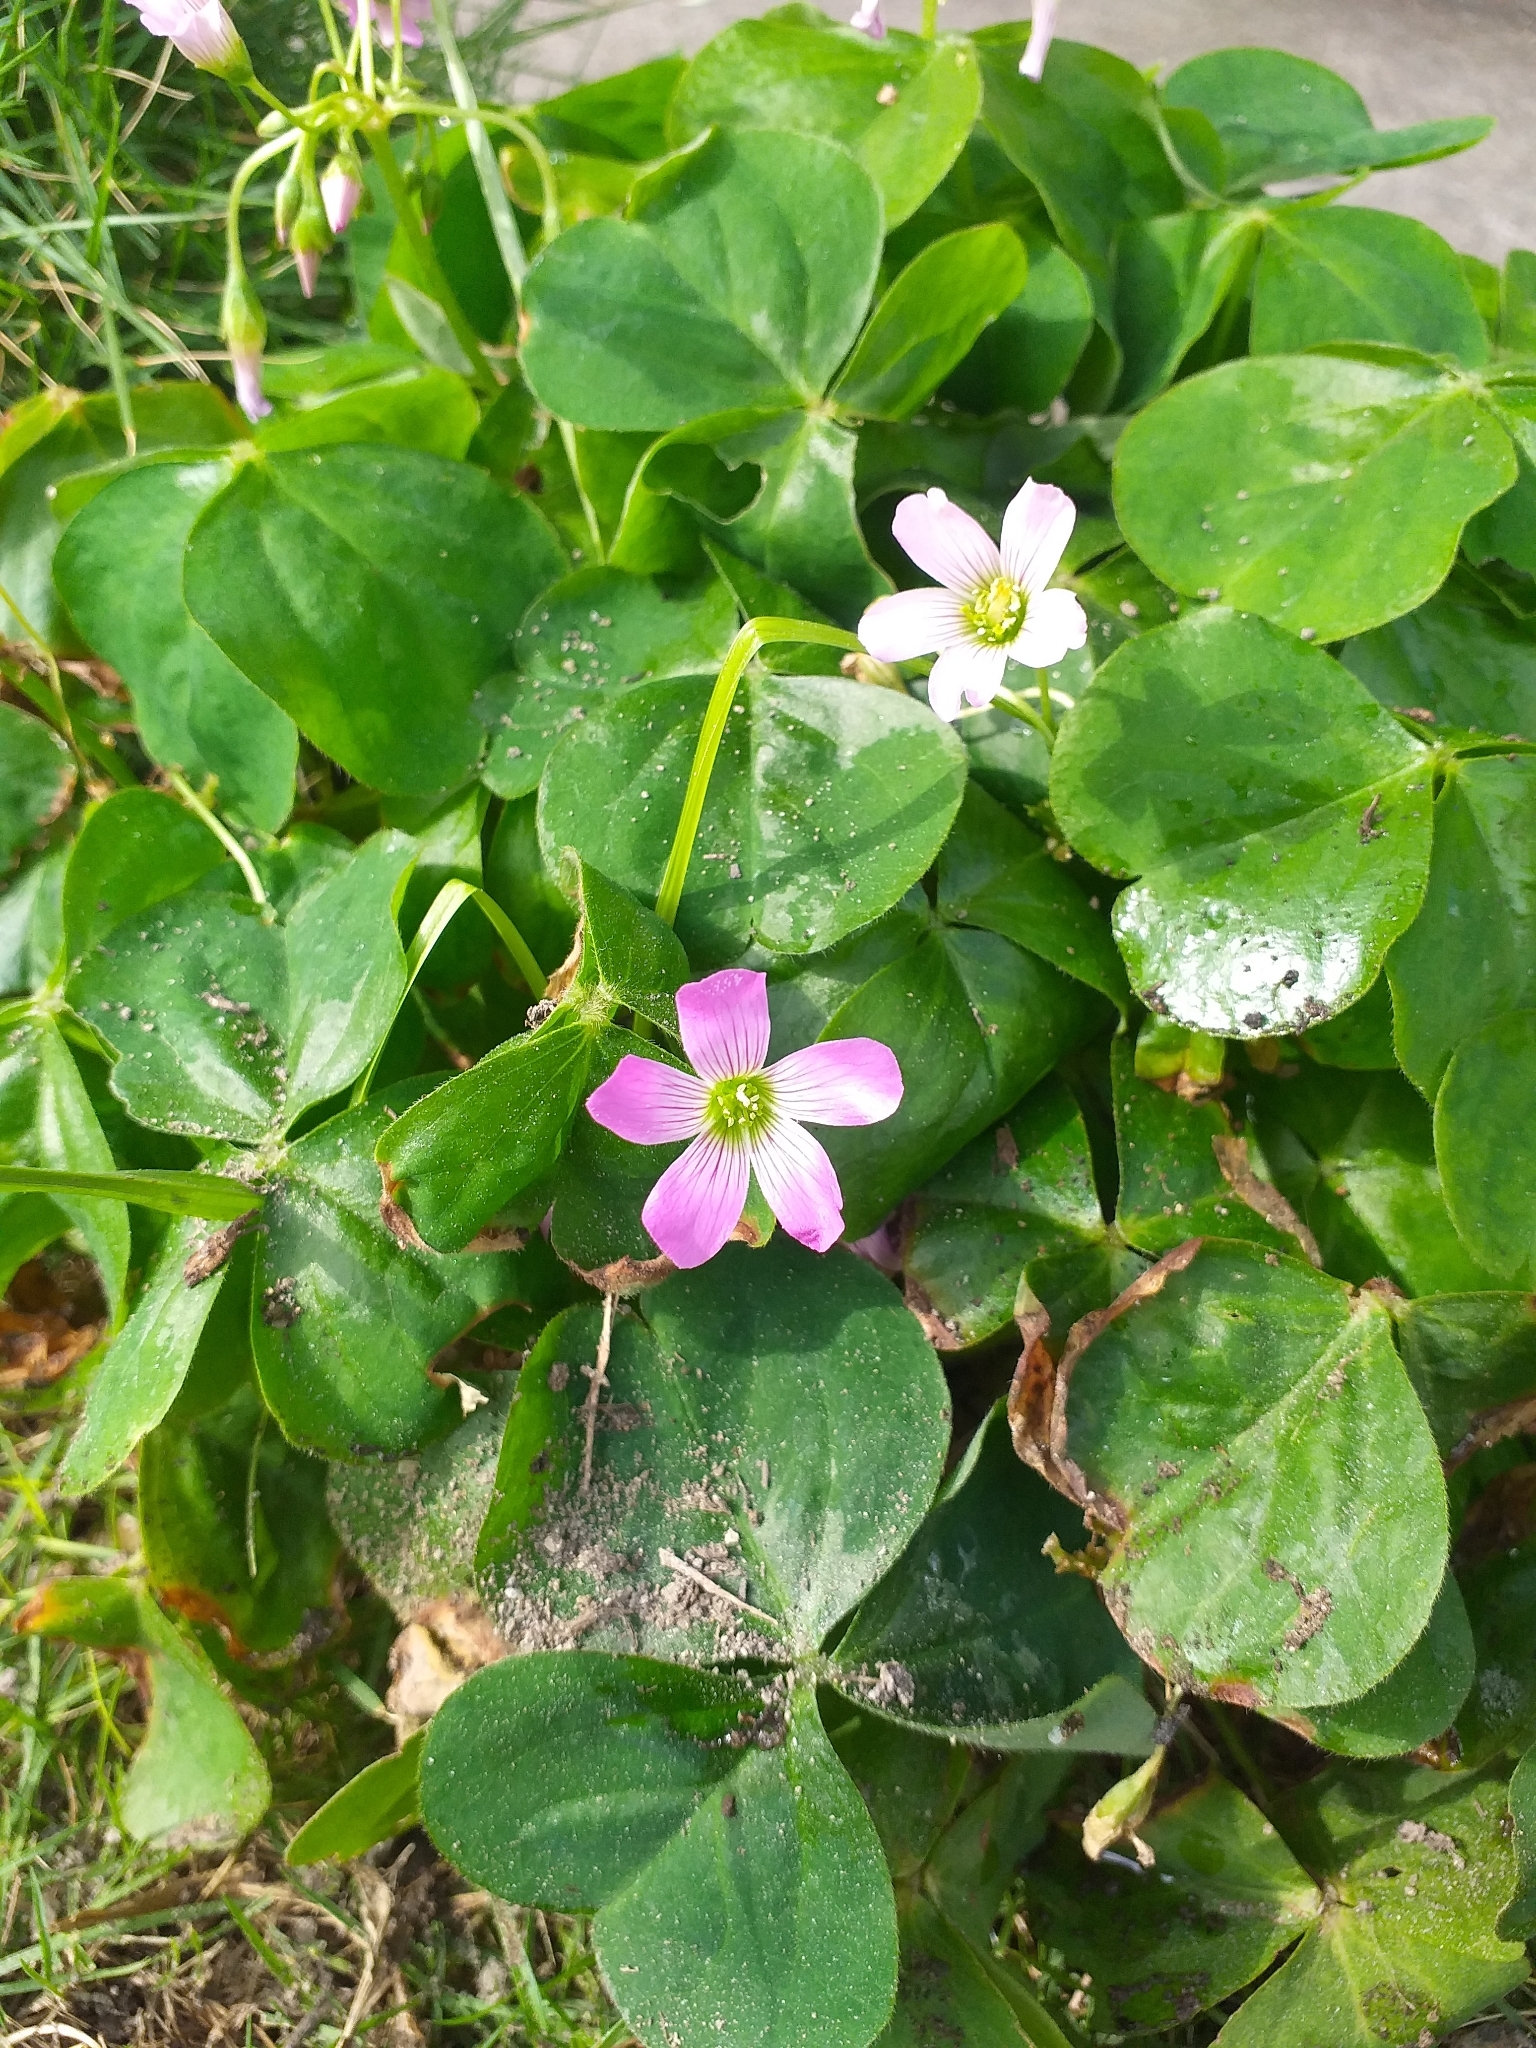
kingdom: Plantae
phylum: Tracheophyta
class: Magnoliopsida
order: Oxalidales
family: Oxalidaceae
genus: Oxalis
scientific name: Oxalis debilis
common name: Large-flowered pink-sorrel
